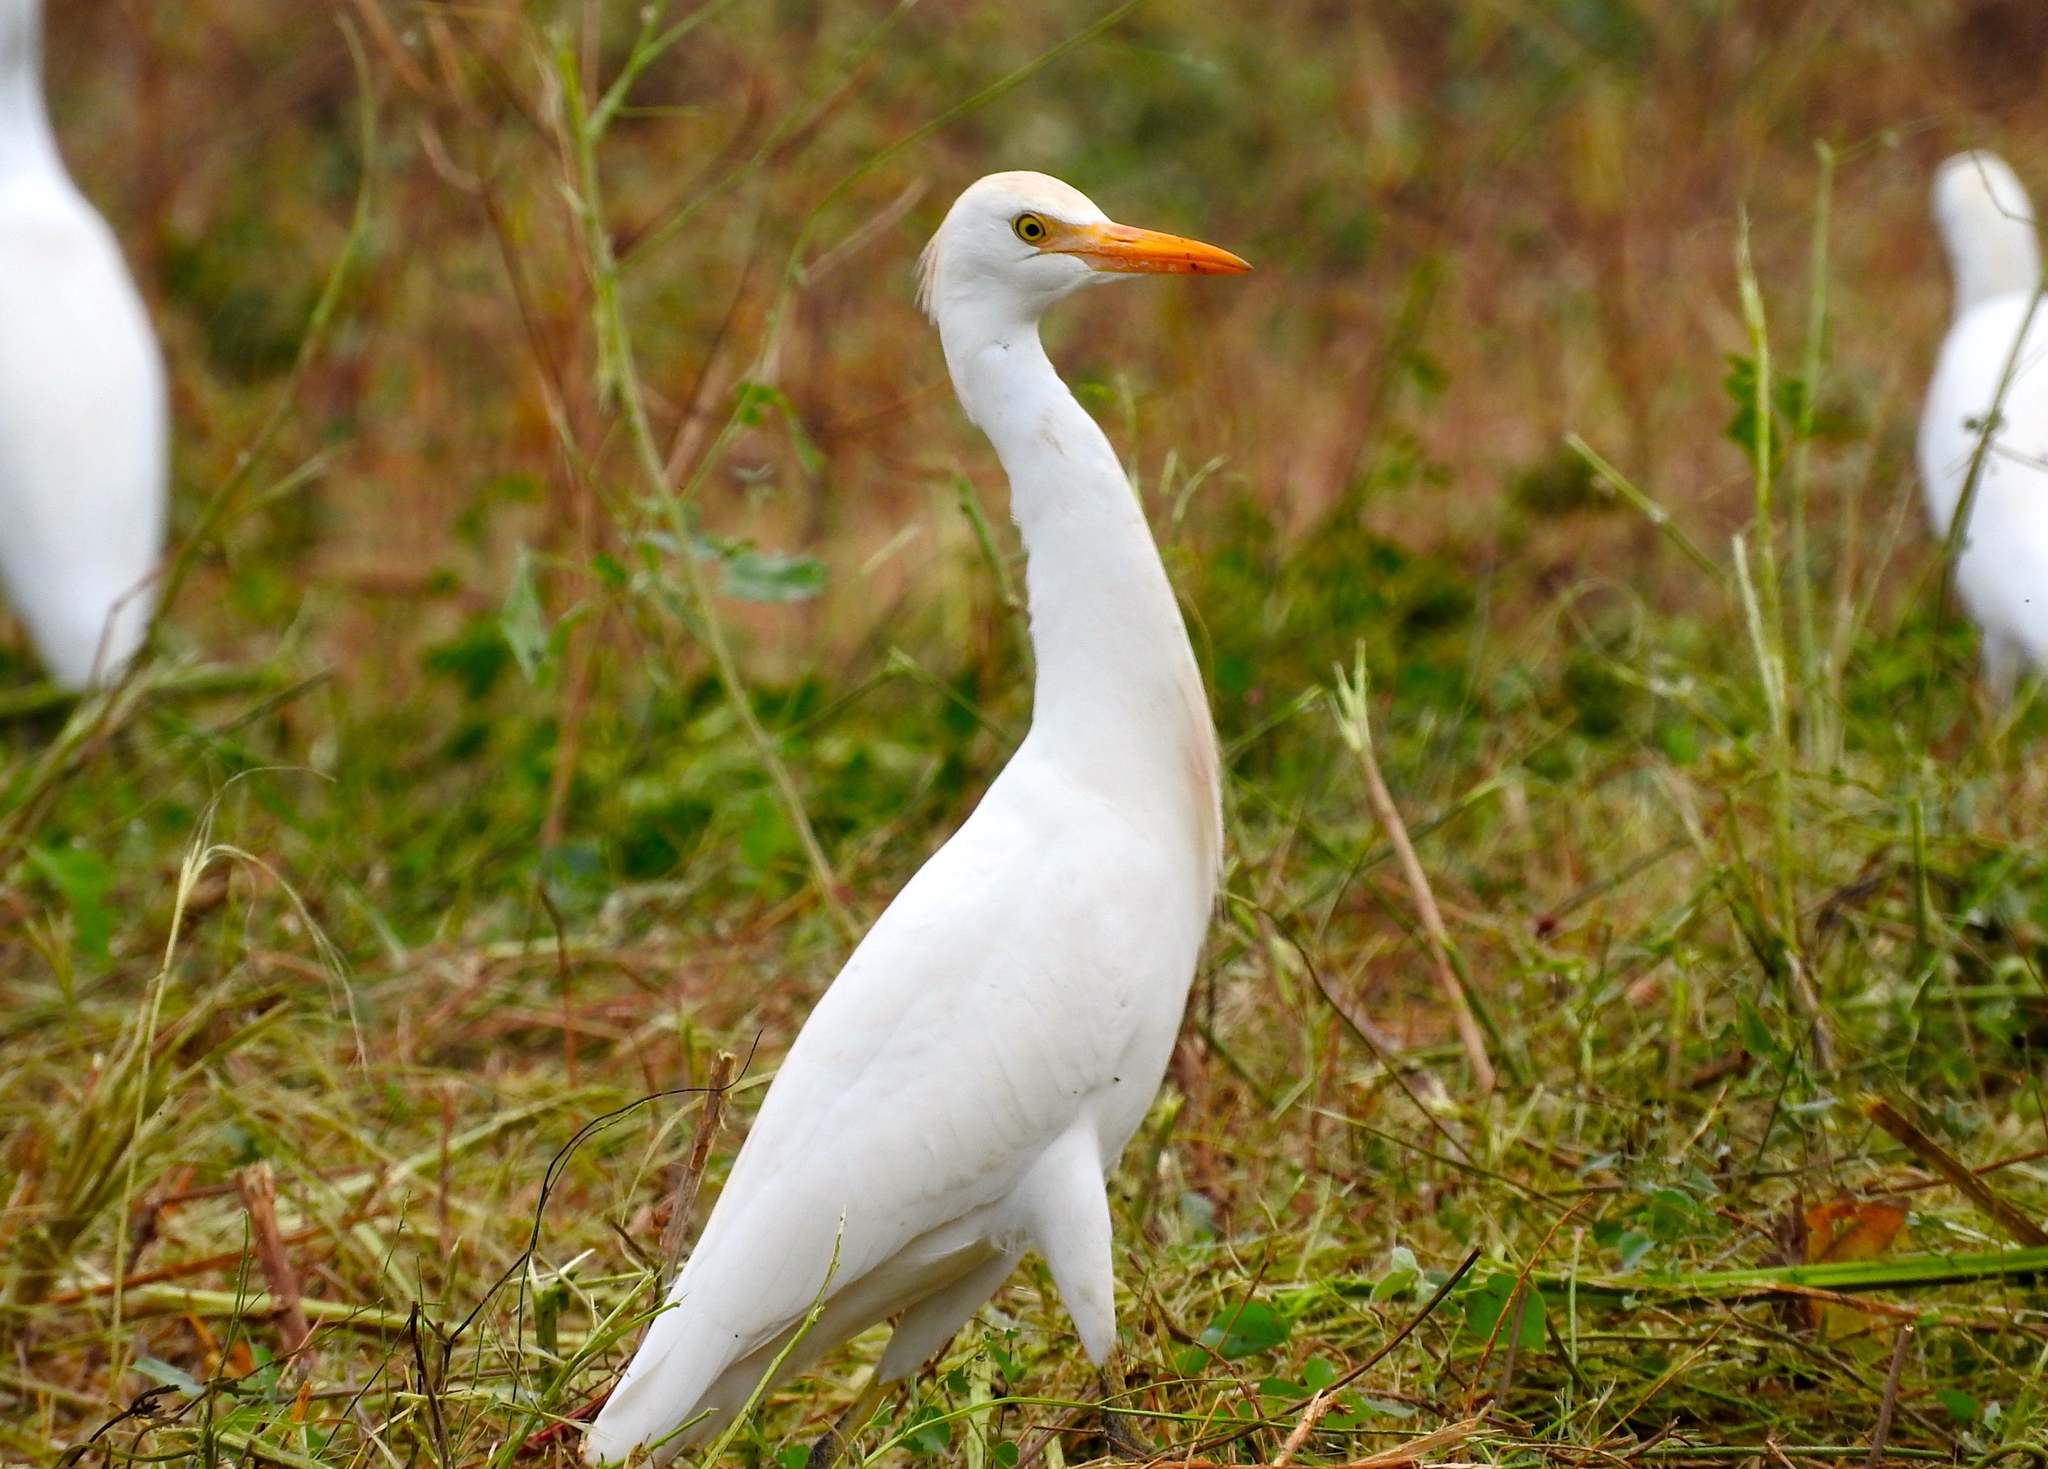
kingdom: Animalia
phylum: Chordata
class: Aves
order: Pelecaniformes
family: Ardeidae
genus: Bubulcus
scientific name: Bubulcus ibis
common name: Cattle egret
